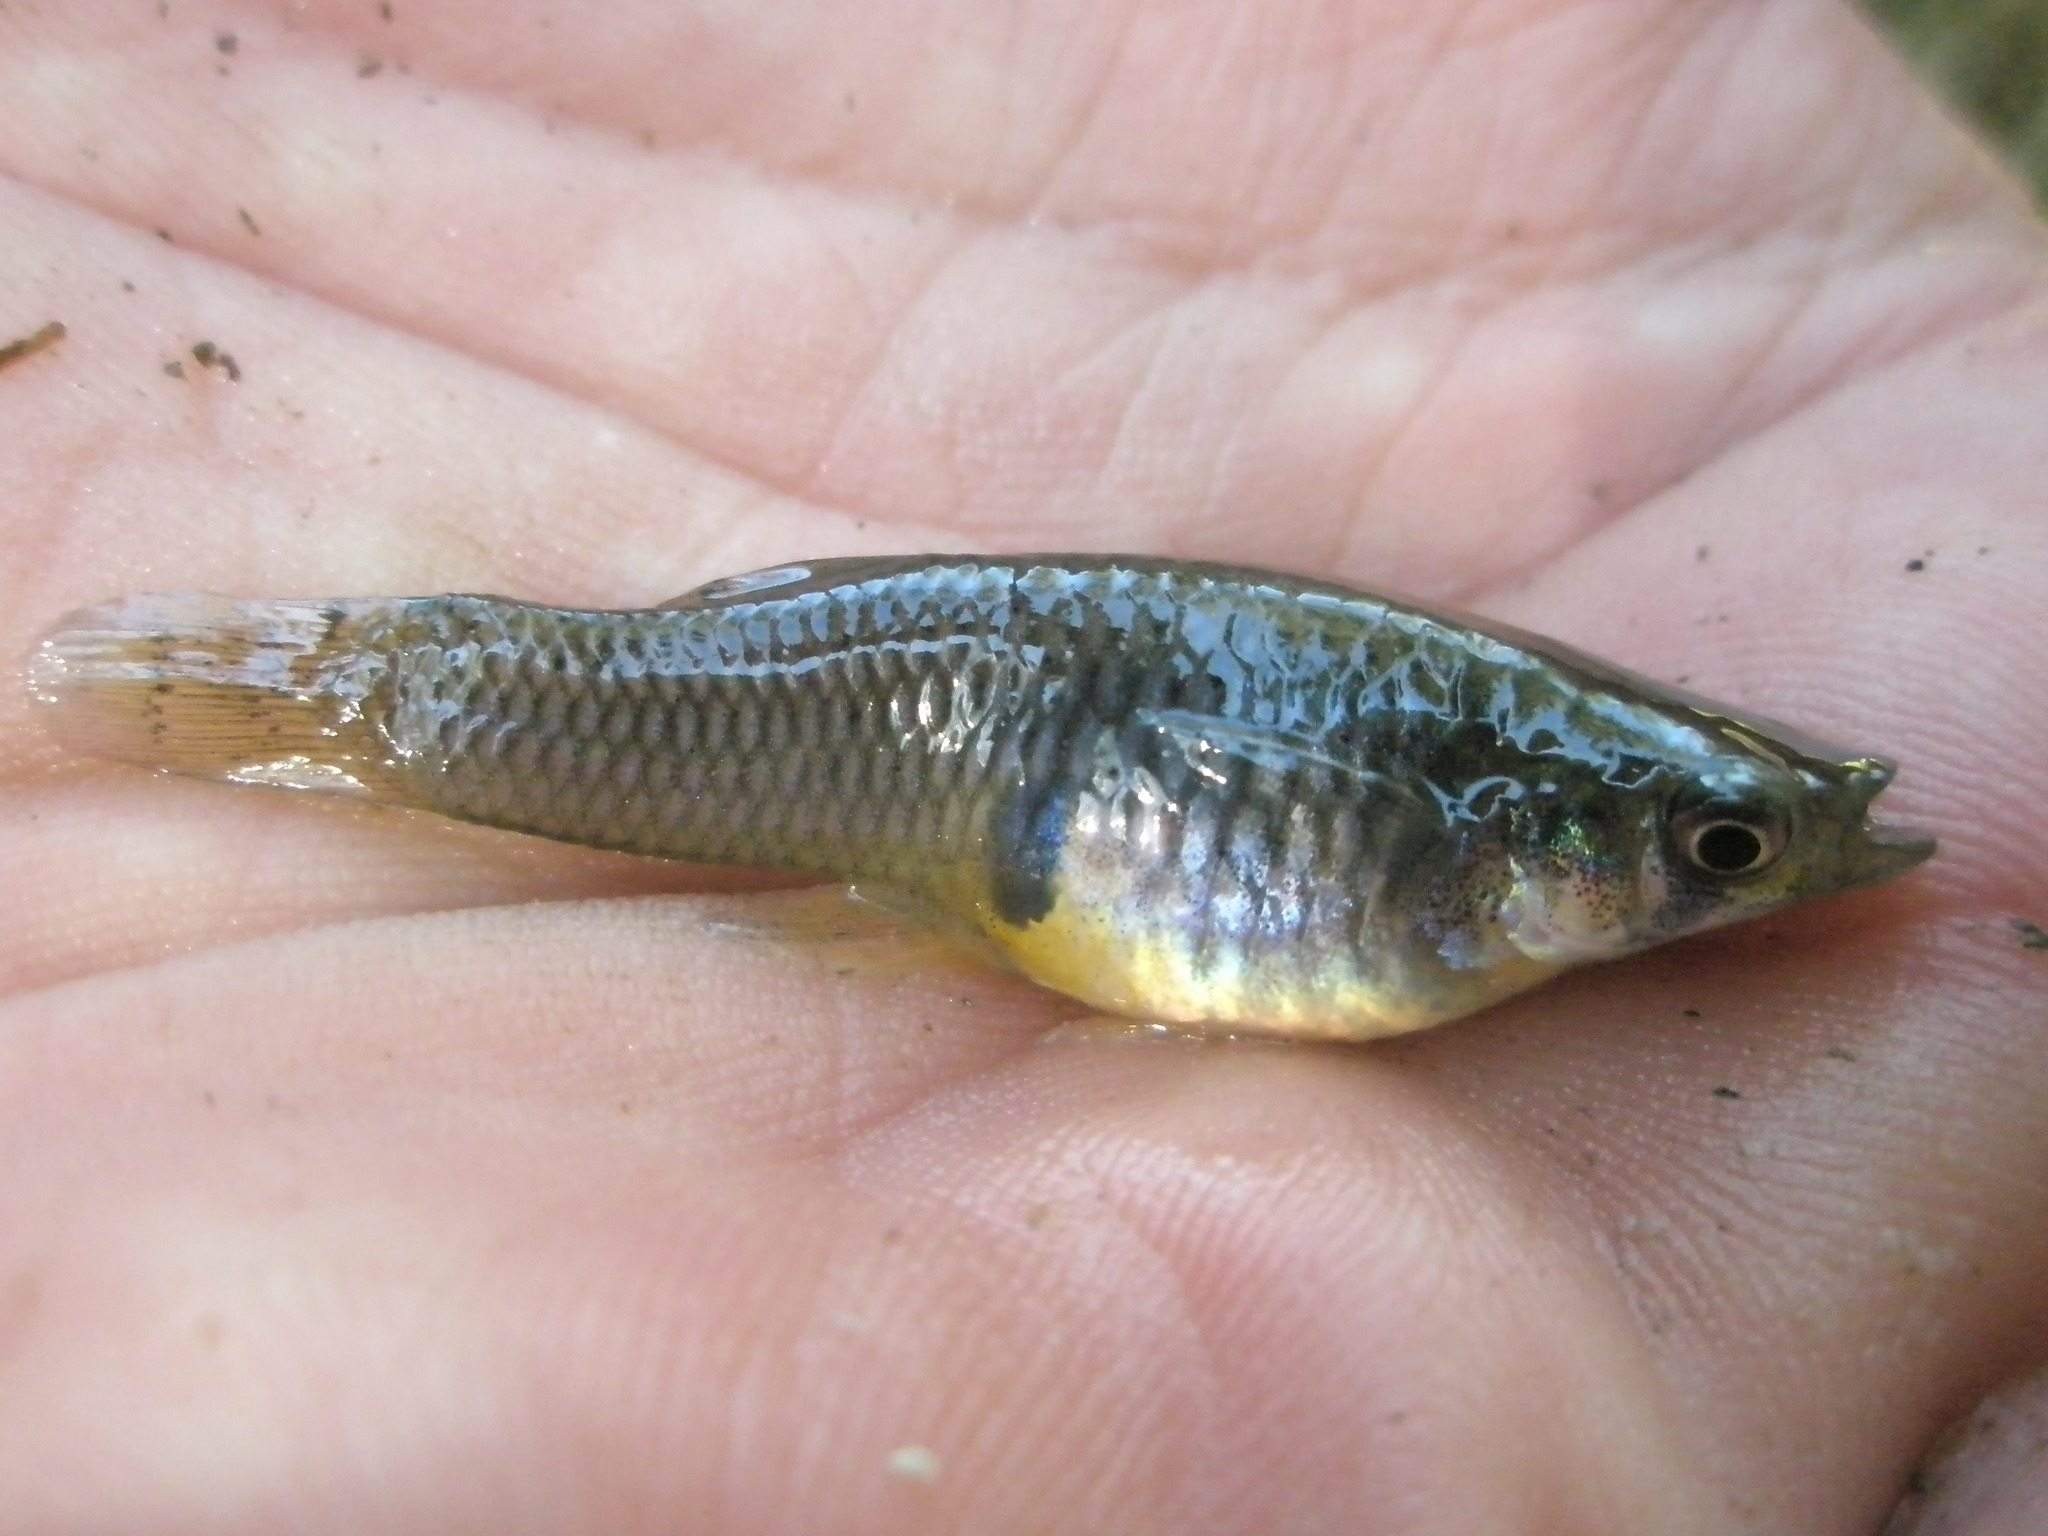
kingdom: Animalia
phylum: Chordata
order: Cyprinodontiformes
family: Poeciliidae
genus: Gambusia
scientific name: Gambusia affinis
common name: Mosquitofish
